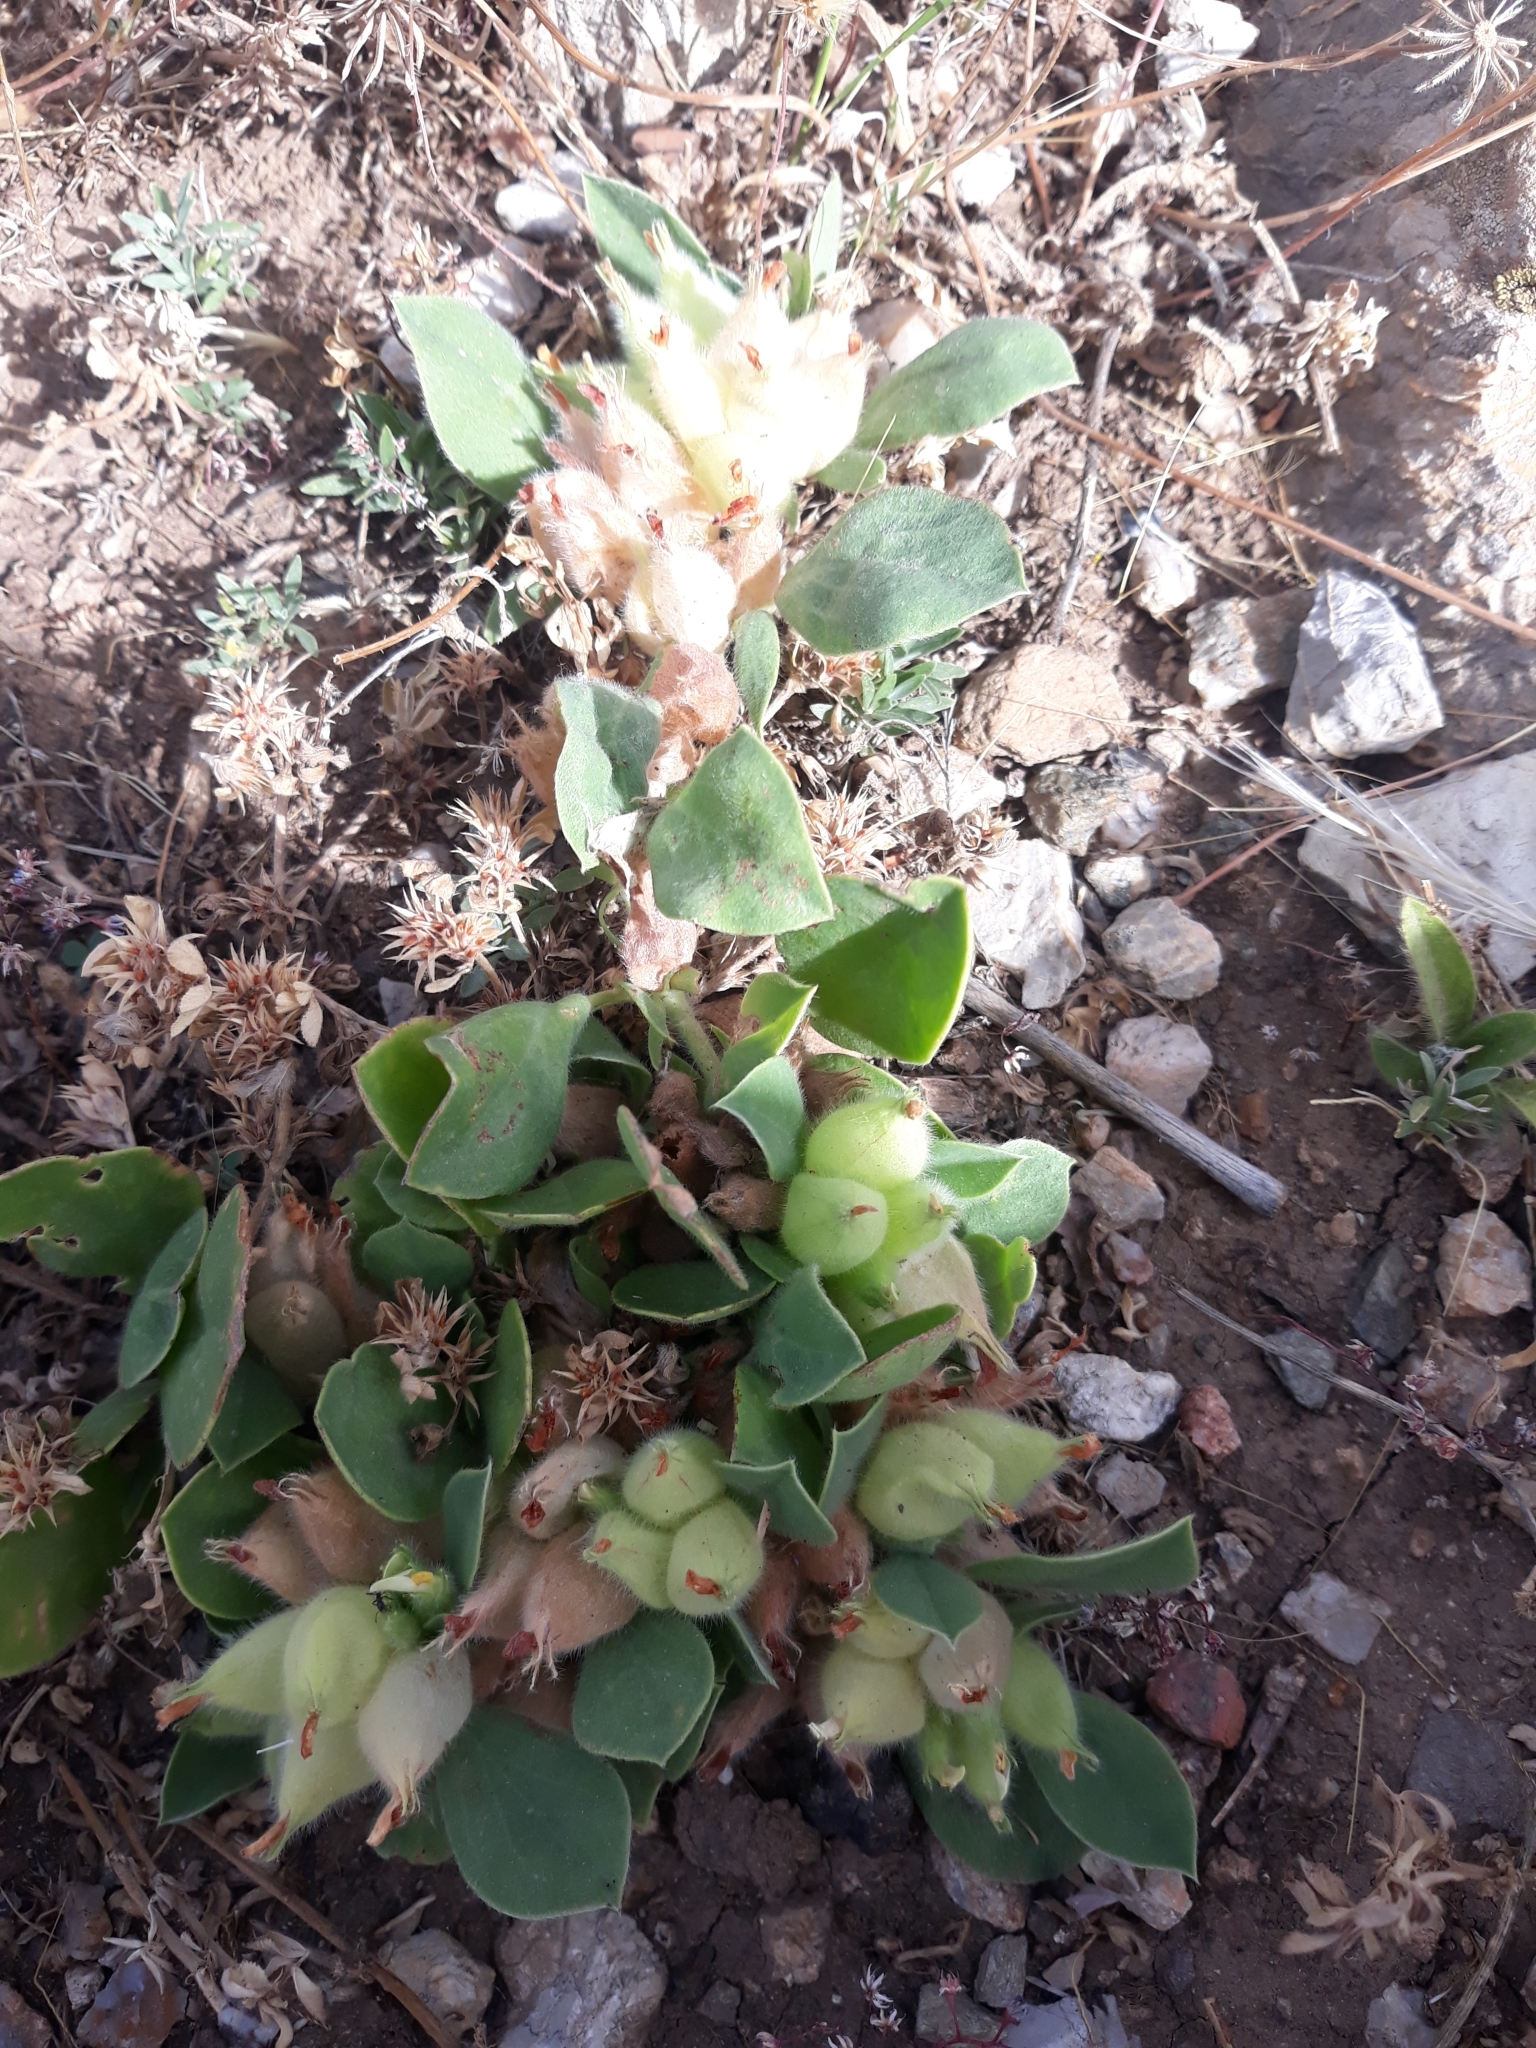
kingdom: Plantae
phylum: Tracheophyta
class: Magnoliopsida
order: Fabales
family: Fabaceae
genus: Tripodion
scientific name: Tripodion tetraphyllum
